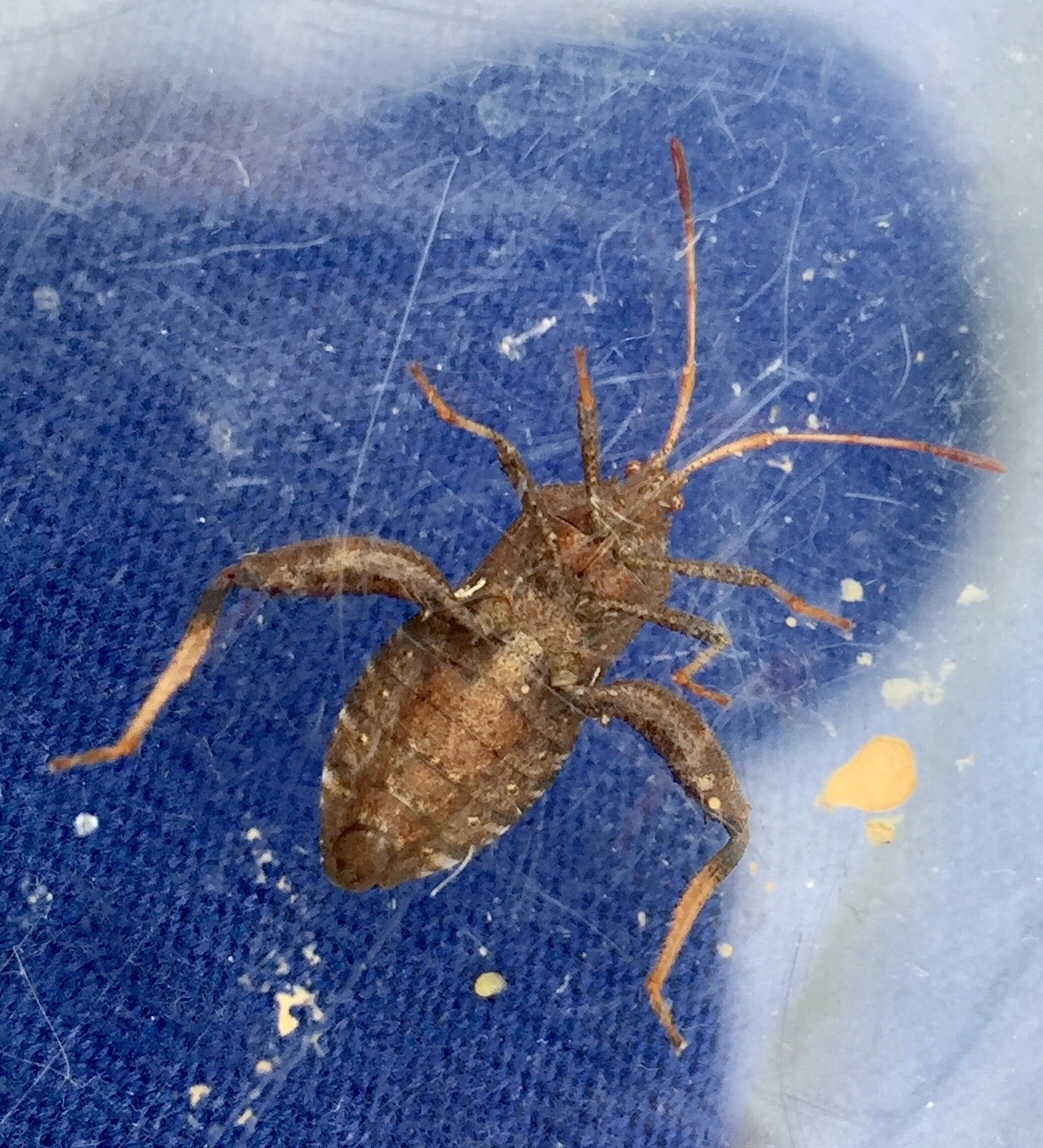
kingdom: Animalia
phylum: Arthropoda
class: Insecta
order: Hemiptera
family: Coreidae
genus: Euthochtha
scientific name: Euthochtha galeator
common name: Helmeted squash bug
